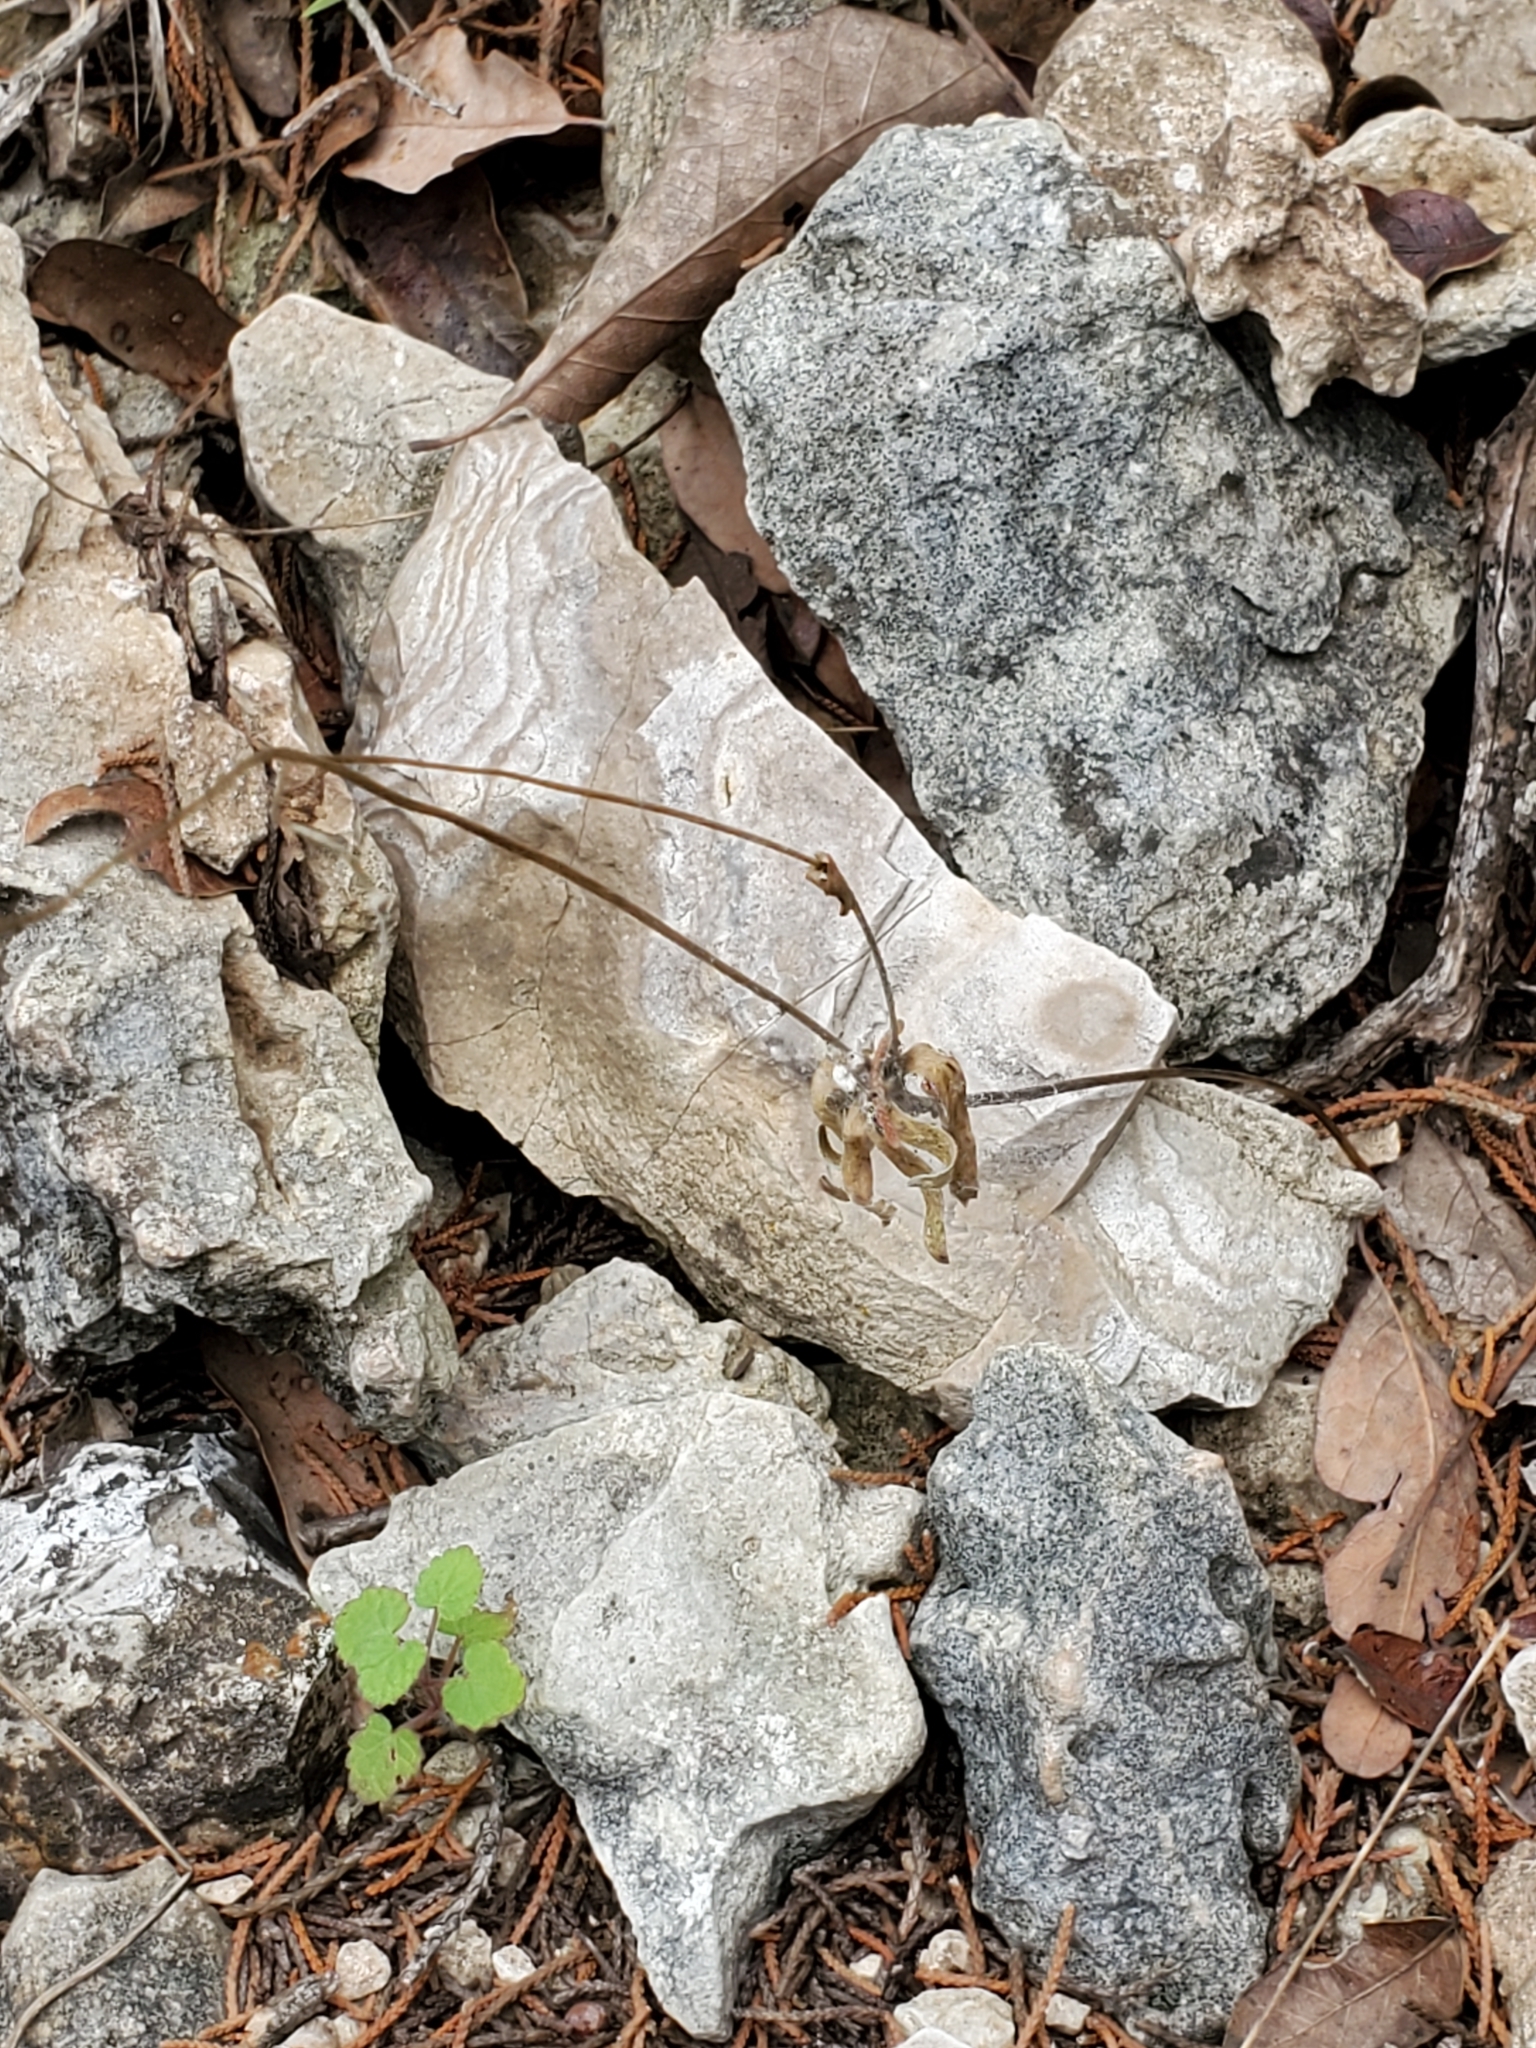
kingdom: Plantae
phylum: Tracheophyta
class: Magnoliopsida
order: Ranunculales
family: Ranunculaceae
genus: Anemone
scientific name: Anemone edwardsiana
